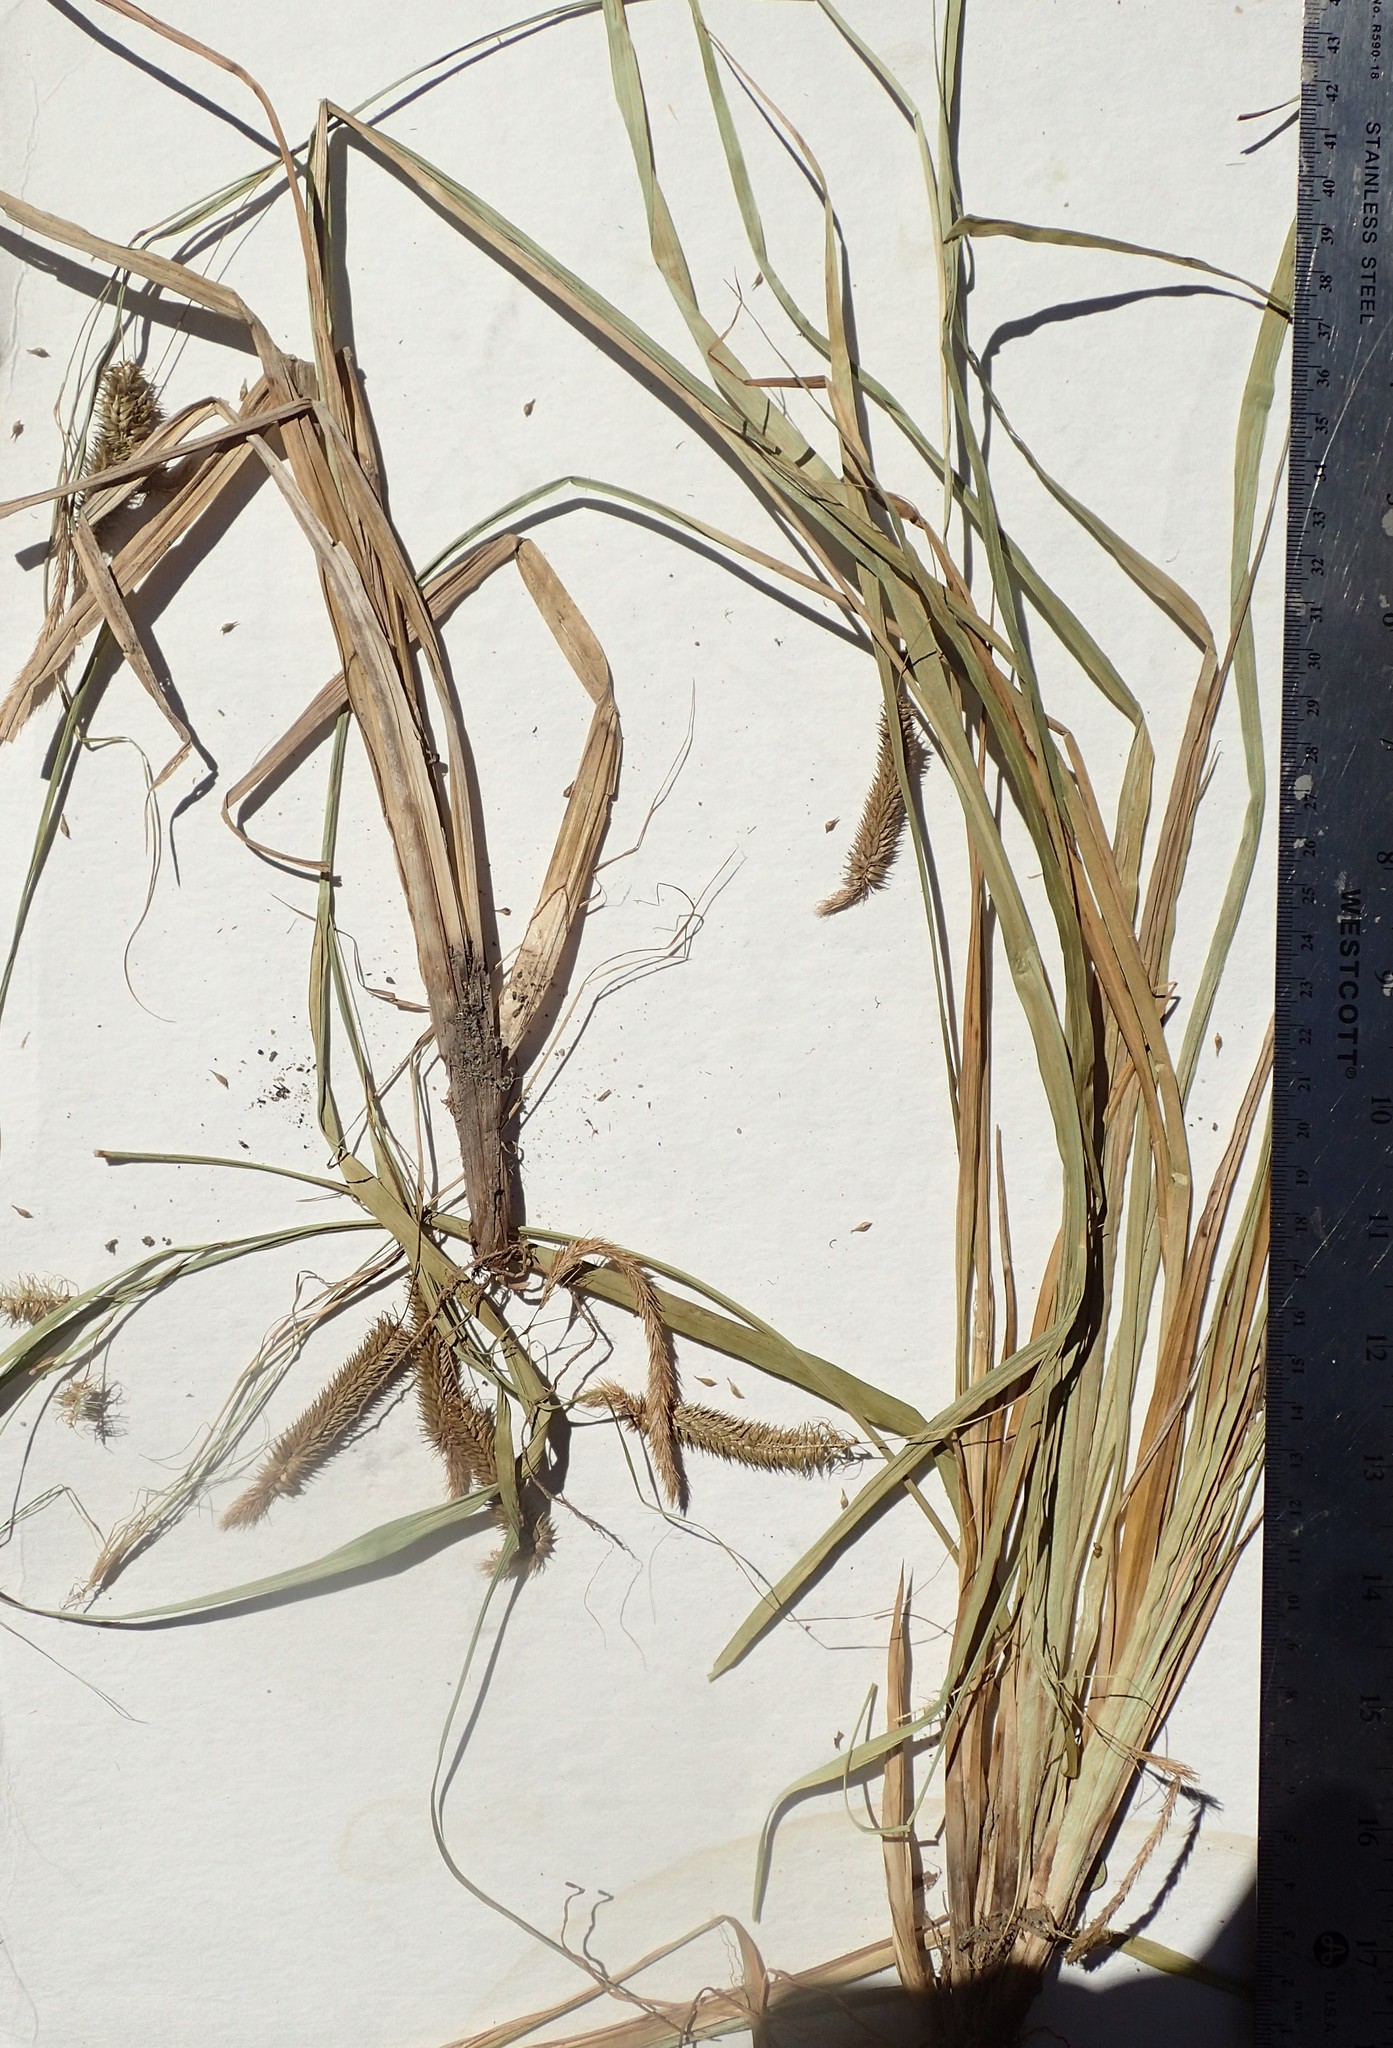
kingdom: Plantae
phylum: Tracheophyta
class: Liliopsida
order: Poales
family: Cyperaceae
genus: Carex
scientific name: Carex pseudocyperus
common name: Cyperus sedge
